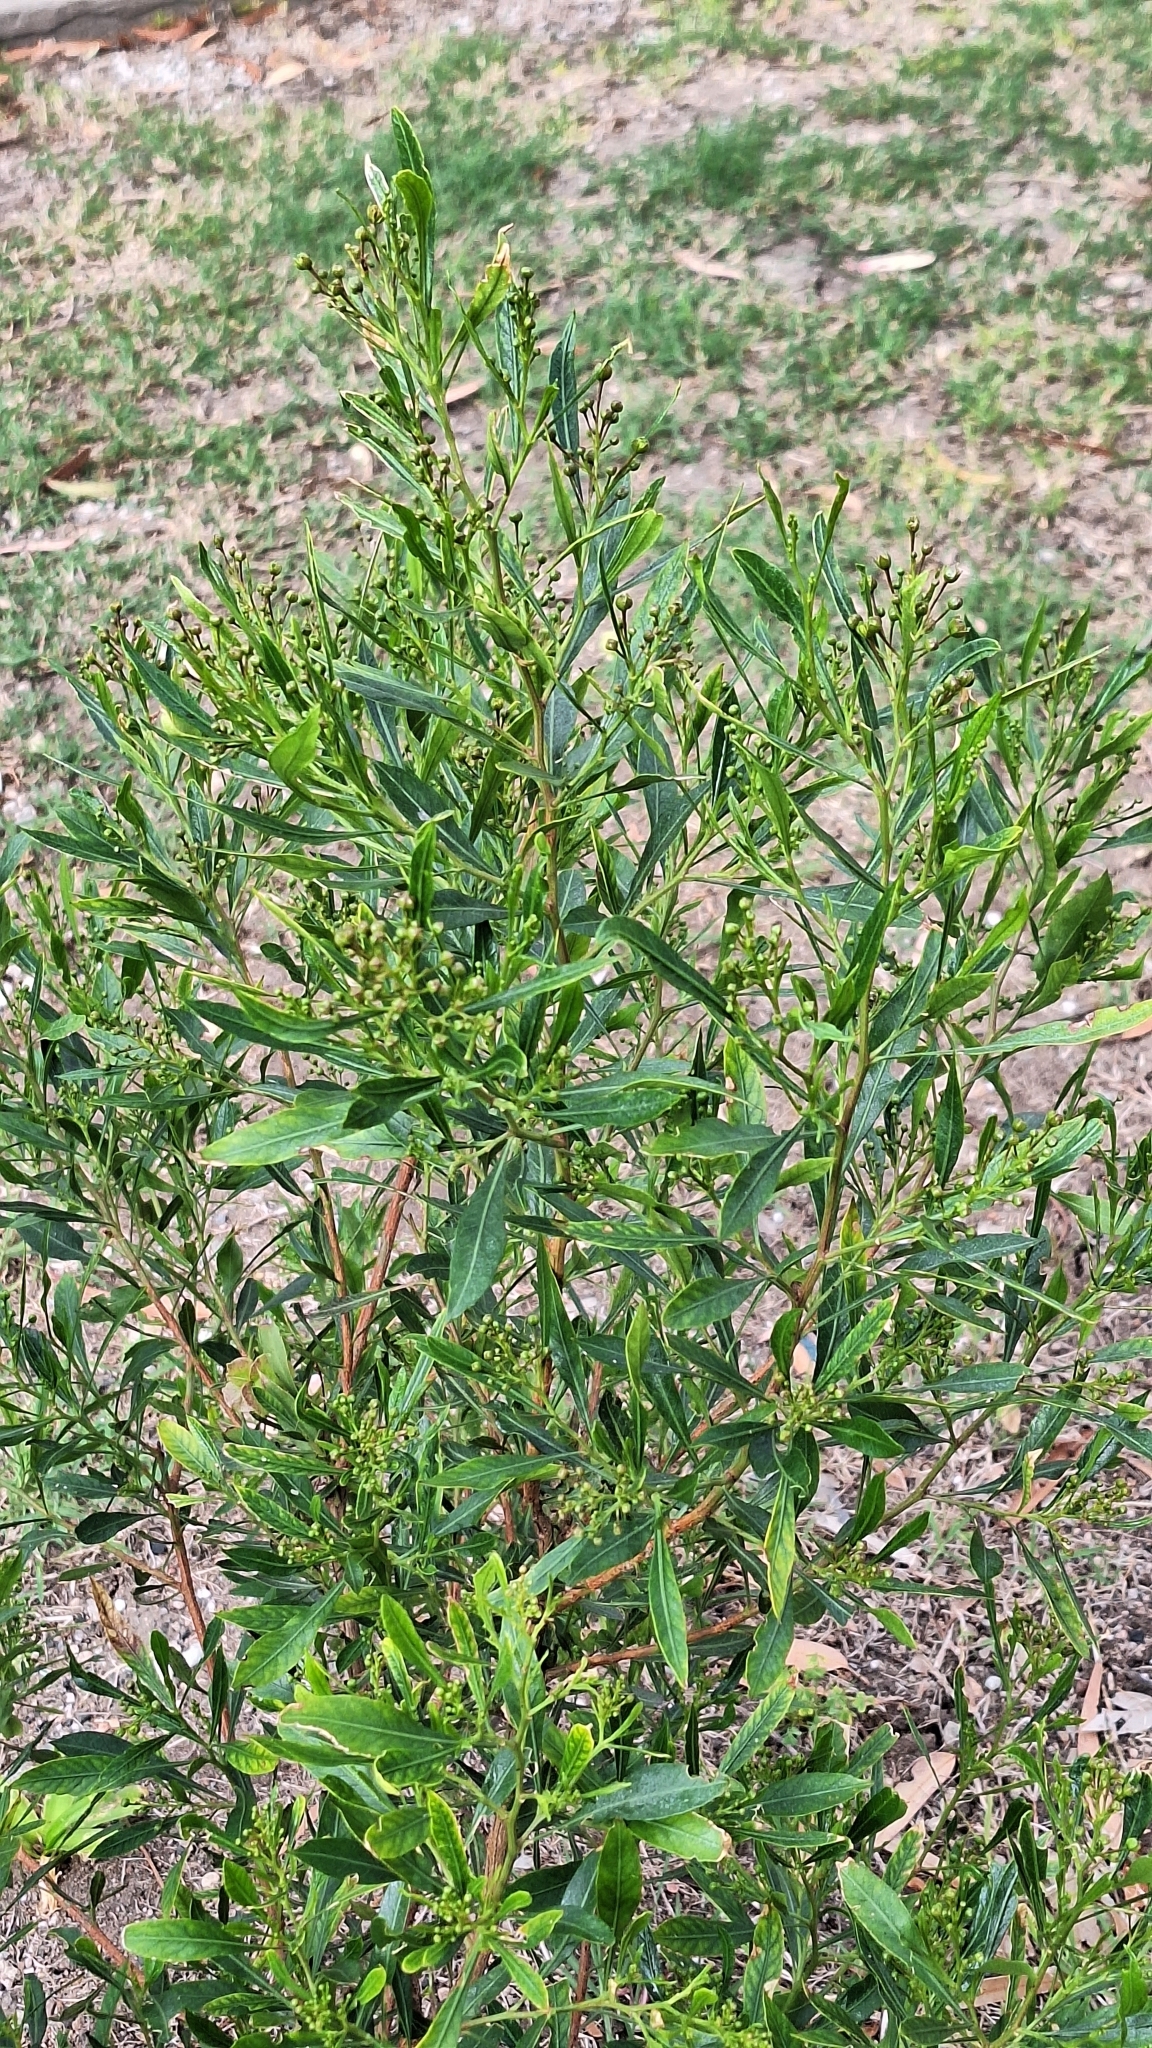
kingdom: Plantae
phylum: Tracheophyta
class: Magnoliopsida
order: Sapindales
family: Sapindaceae
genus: Dodonaea
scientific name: Dodonaea viscosa
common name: Hopbush
